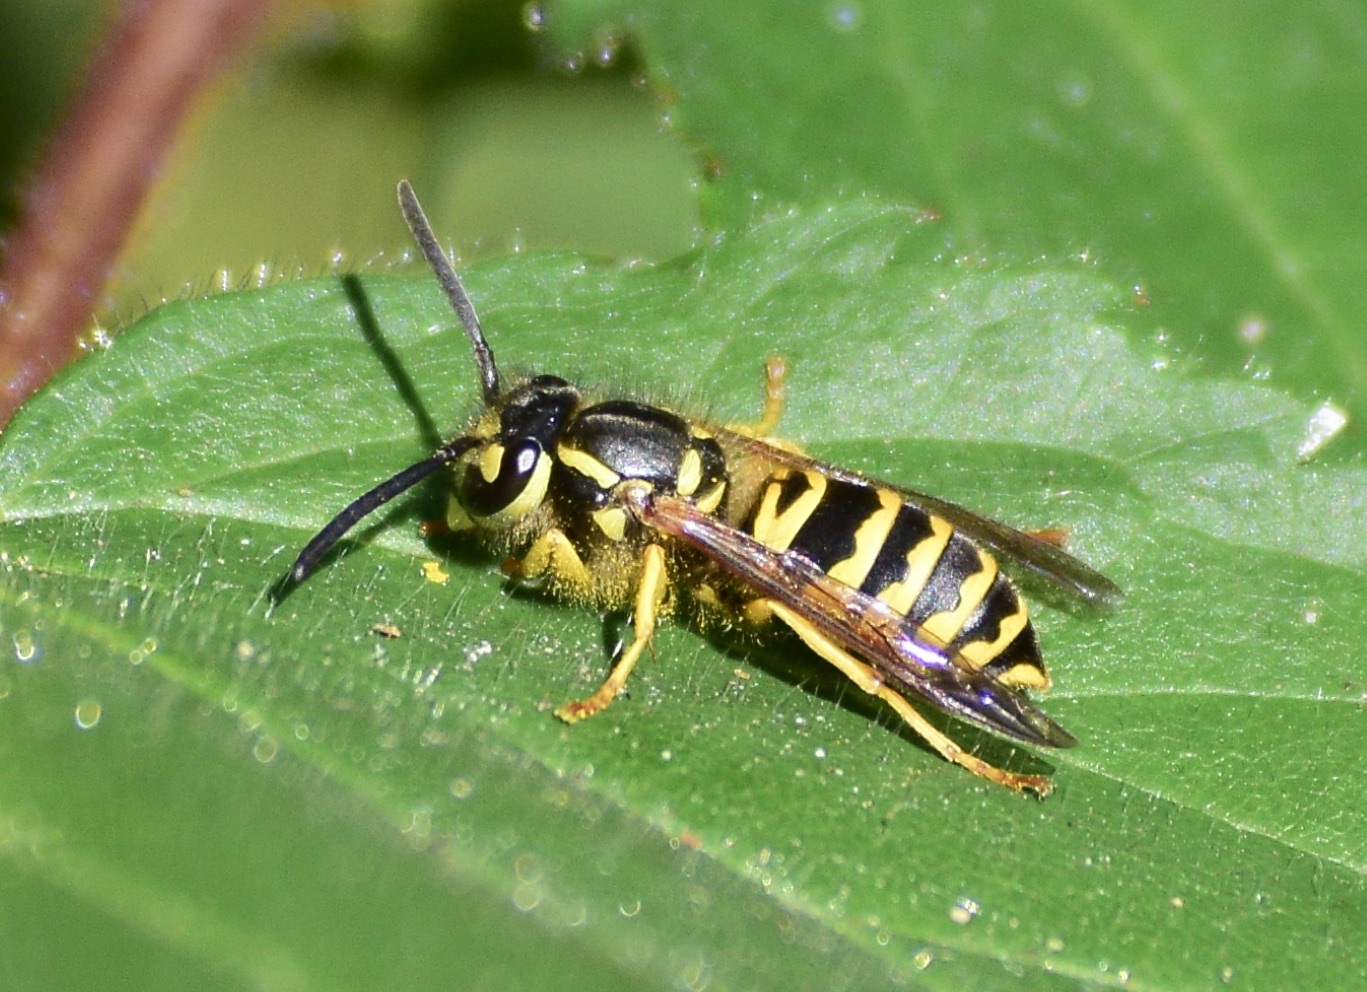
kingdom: Animalia
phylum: Arthropoda
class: Insecta
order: Hymenoptera
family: Vespidae
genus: Vespula
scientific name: Vespula maculifrons
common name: Eastern yellowjacket
